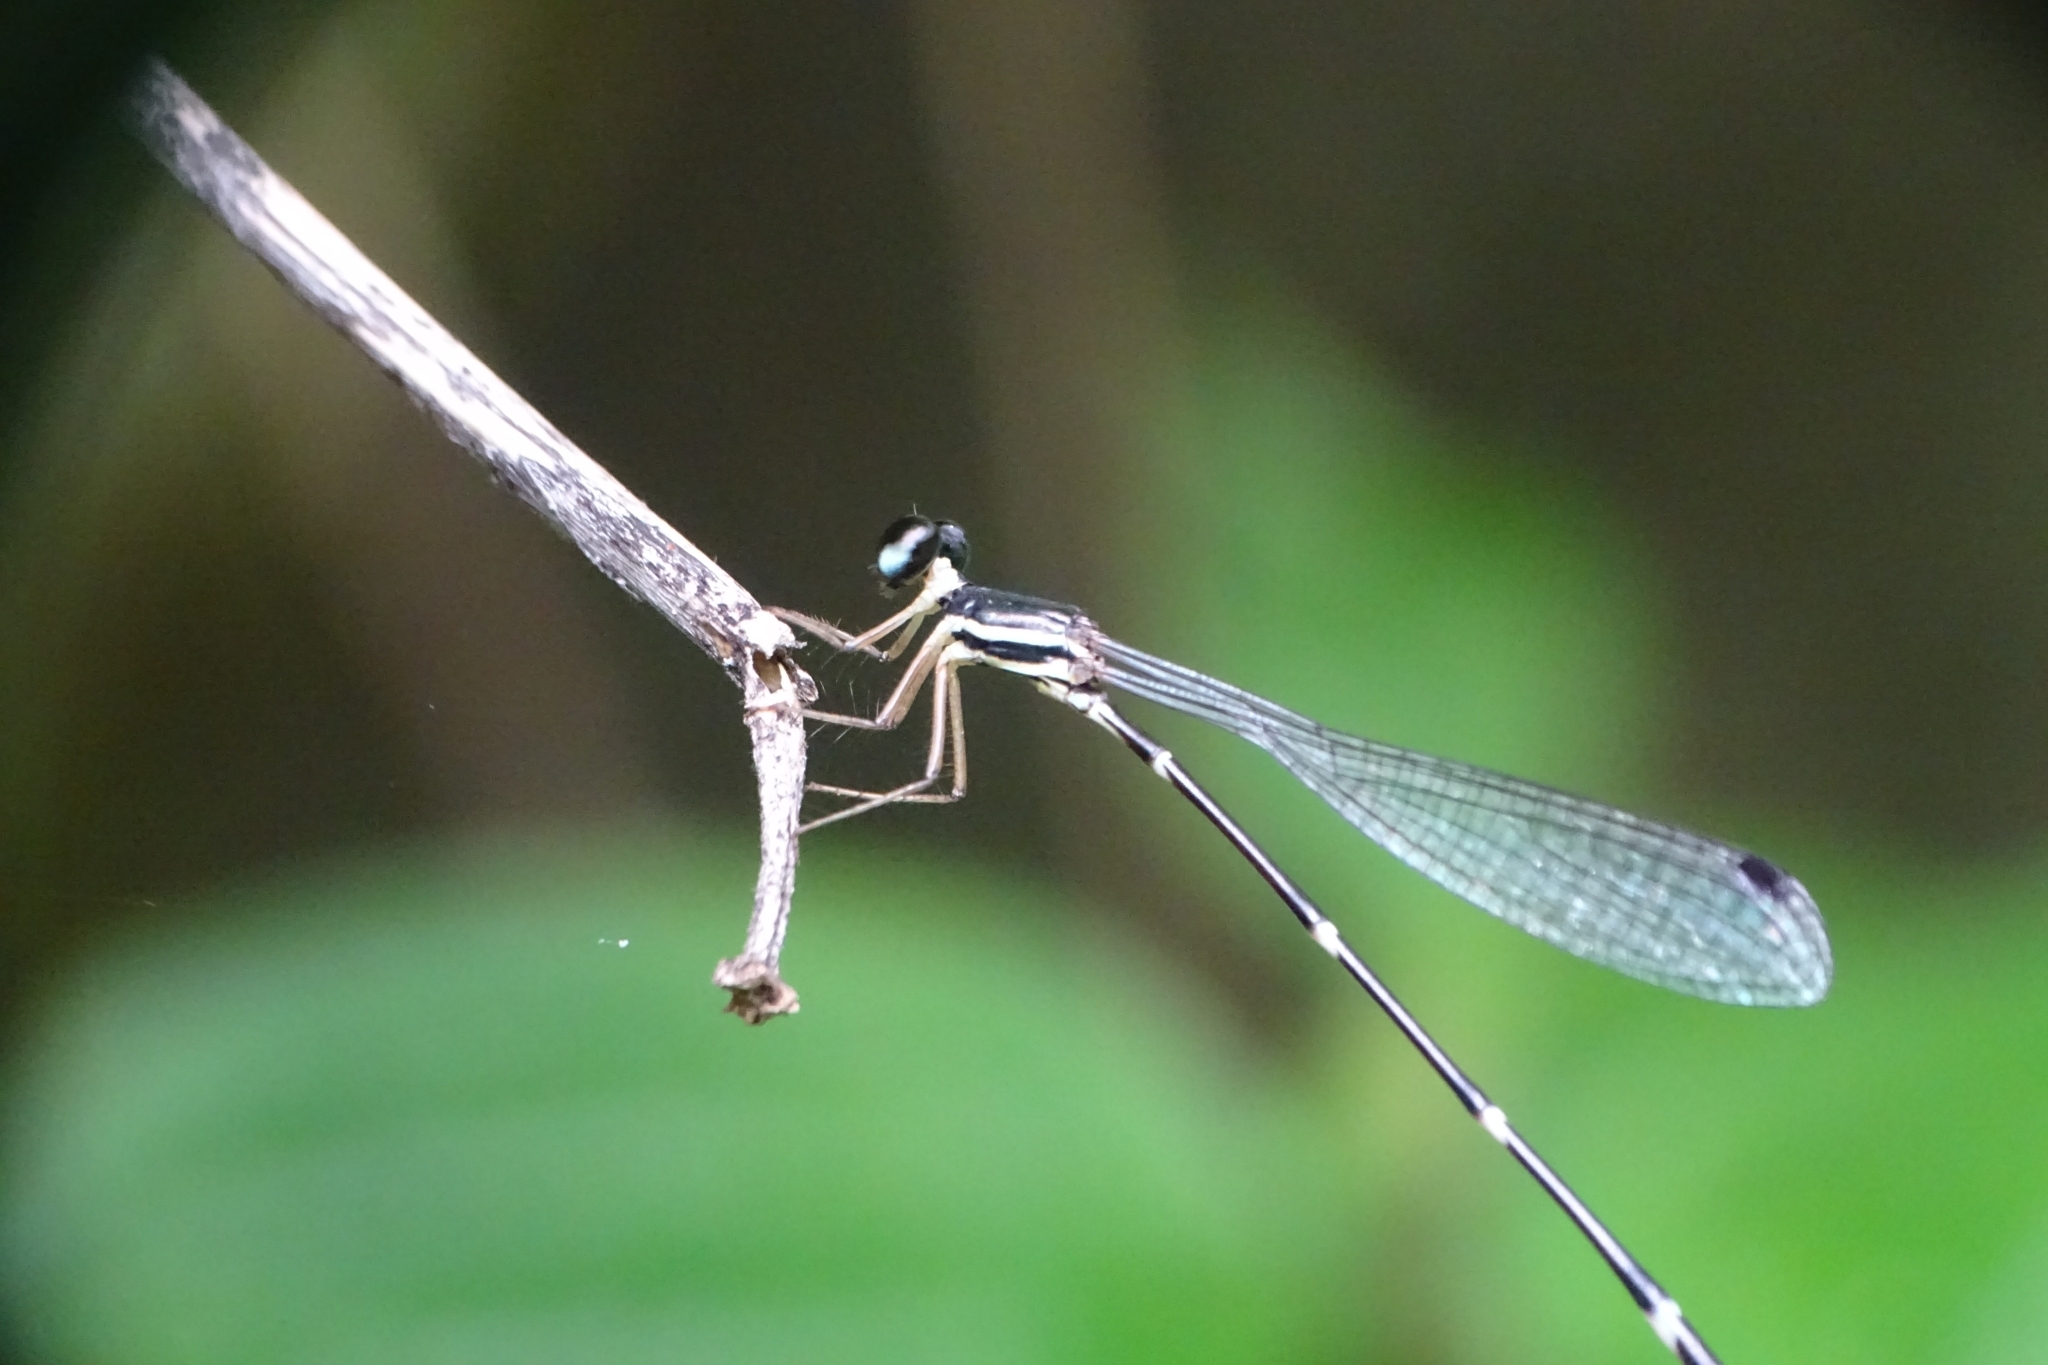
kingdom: Animalia
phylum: Arthropoda
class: Insecta
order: Odonata
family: Platystictidae
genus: Protosticta
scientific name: Protosticta gravelyi
